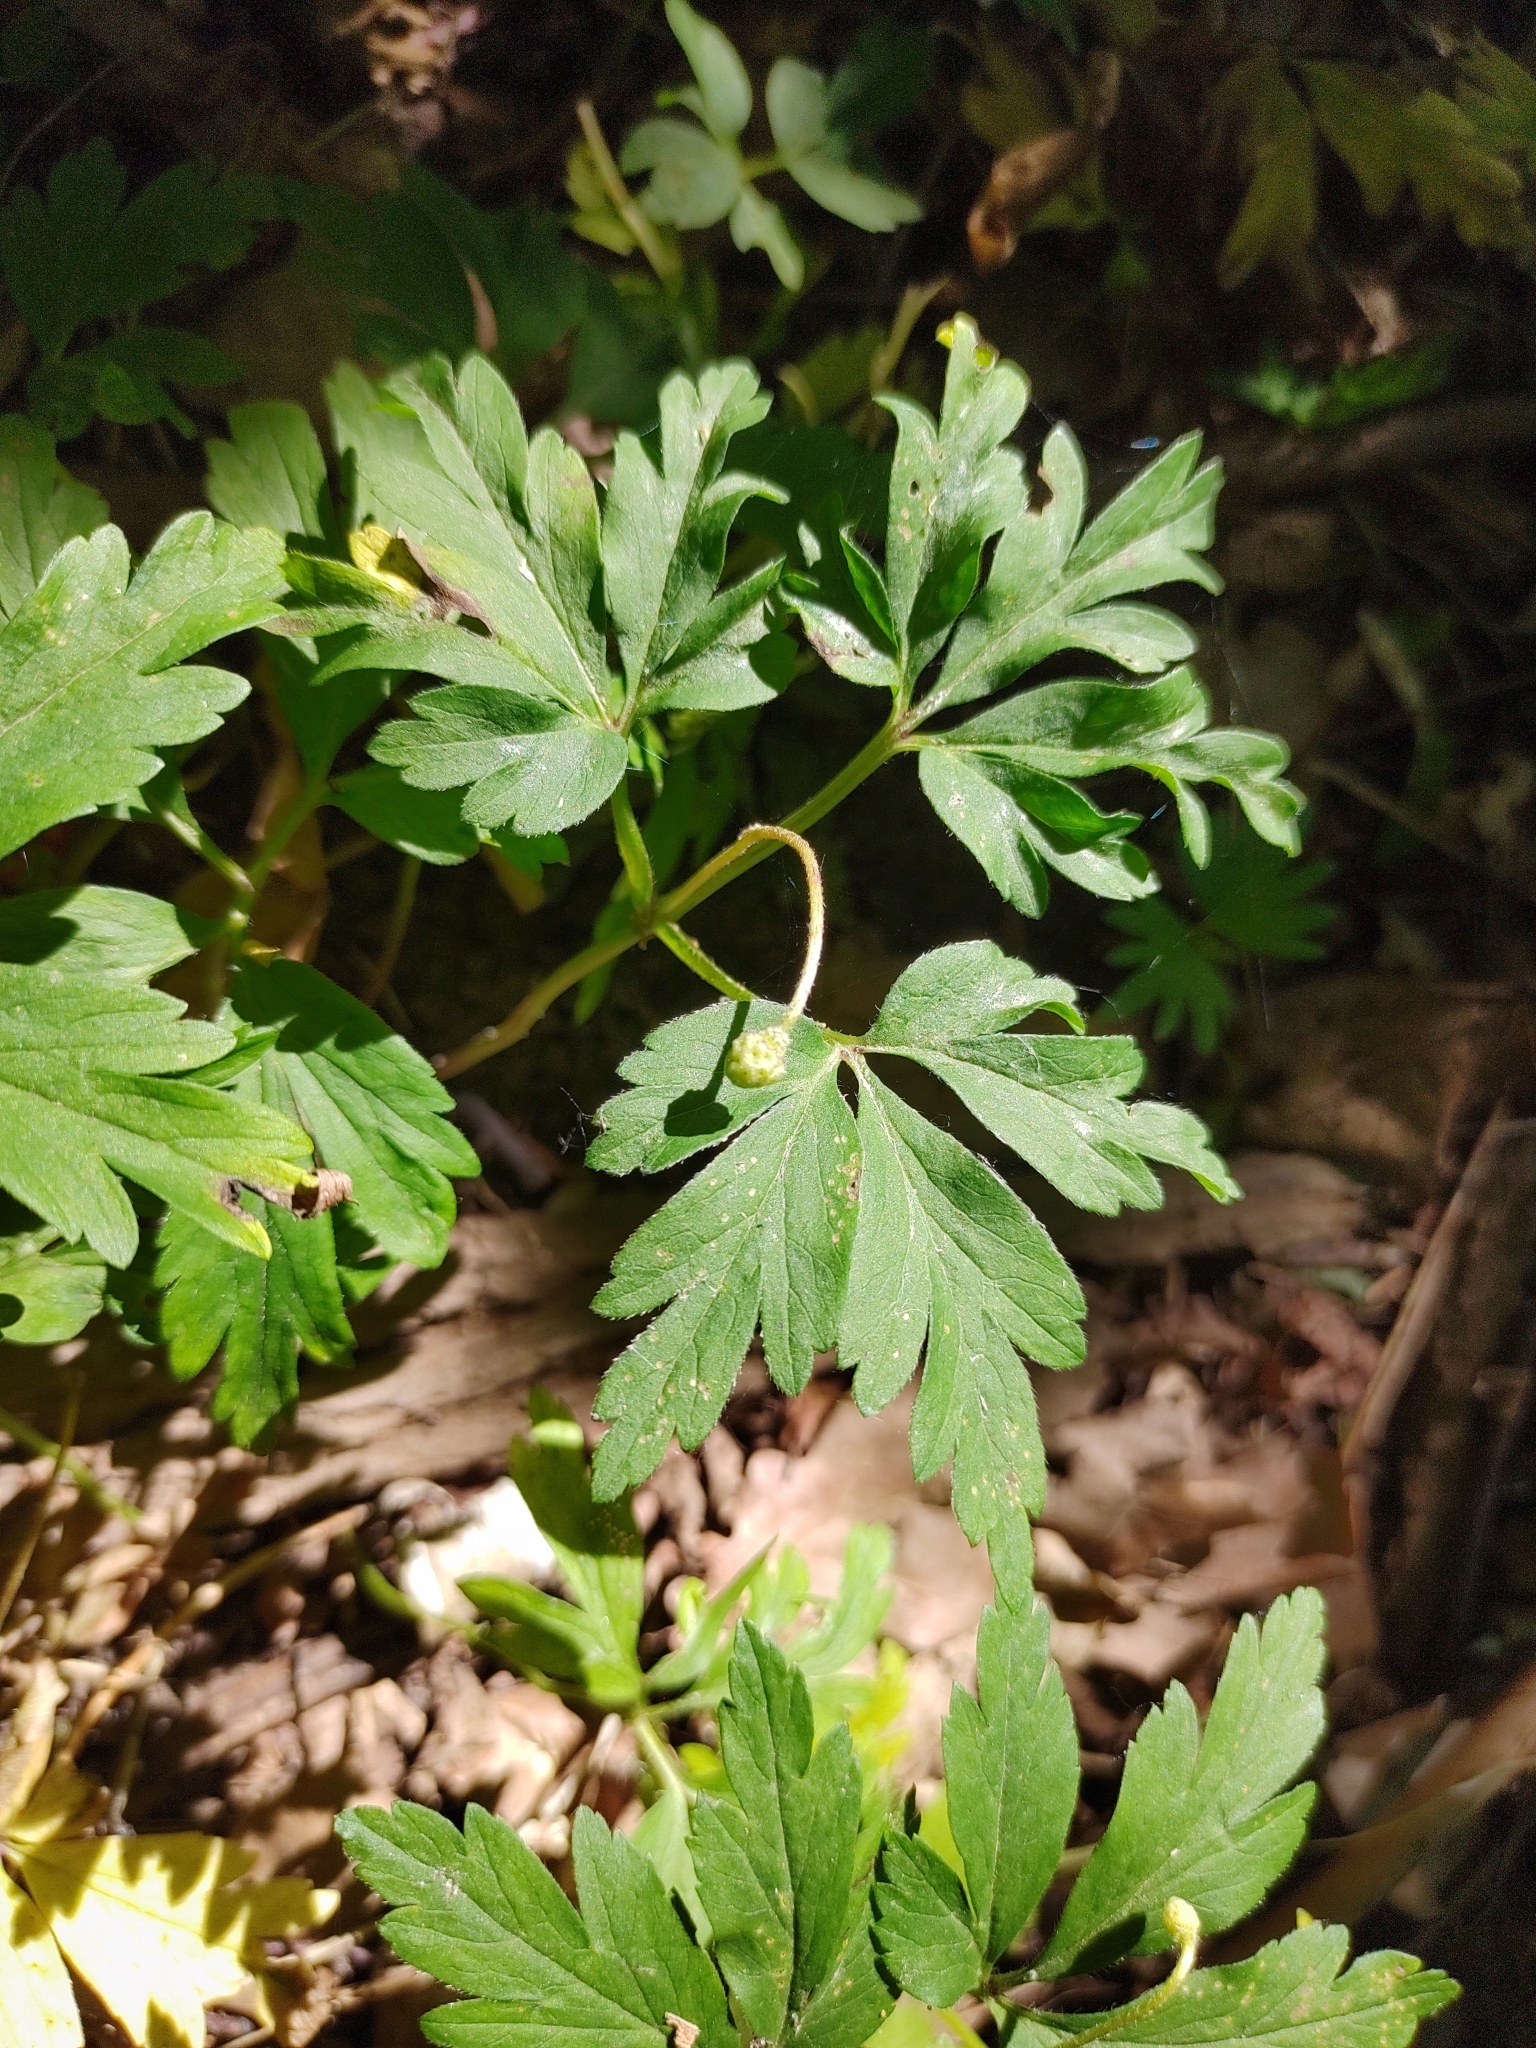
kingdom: Plantae
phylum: Tracheophyta
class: Magnoliopsida
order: Ranunculales
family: Ranunculaceae
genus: Anemone
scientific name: Anemone nemorosa
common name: Wood anemone
